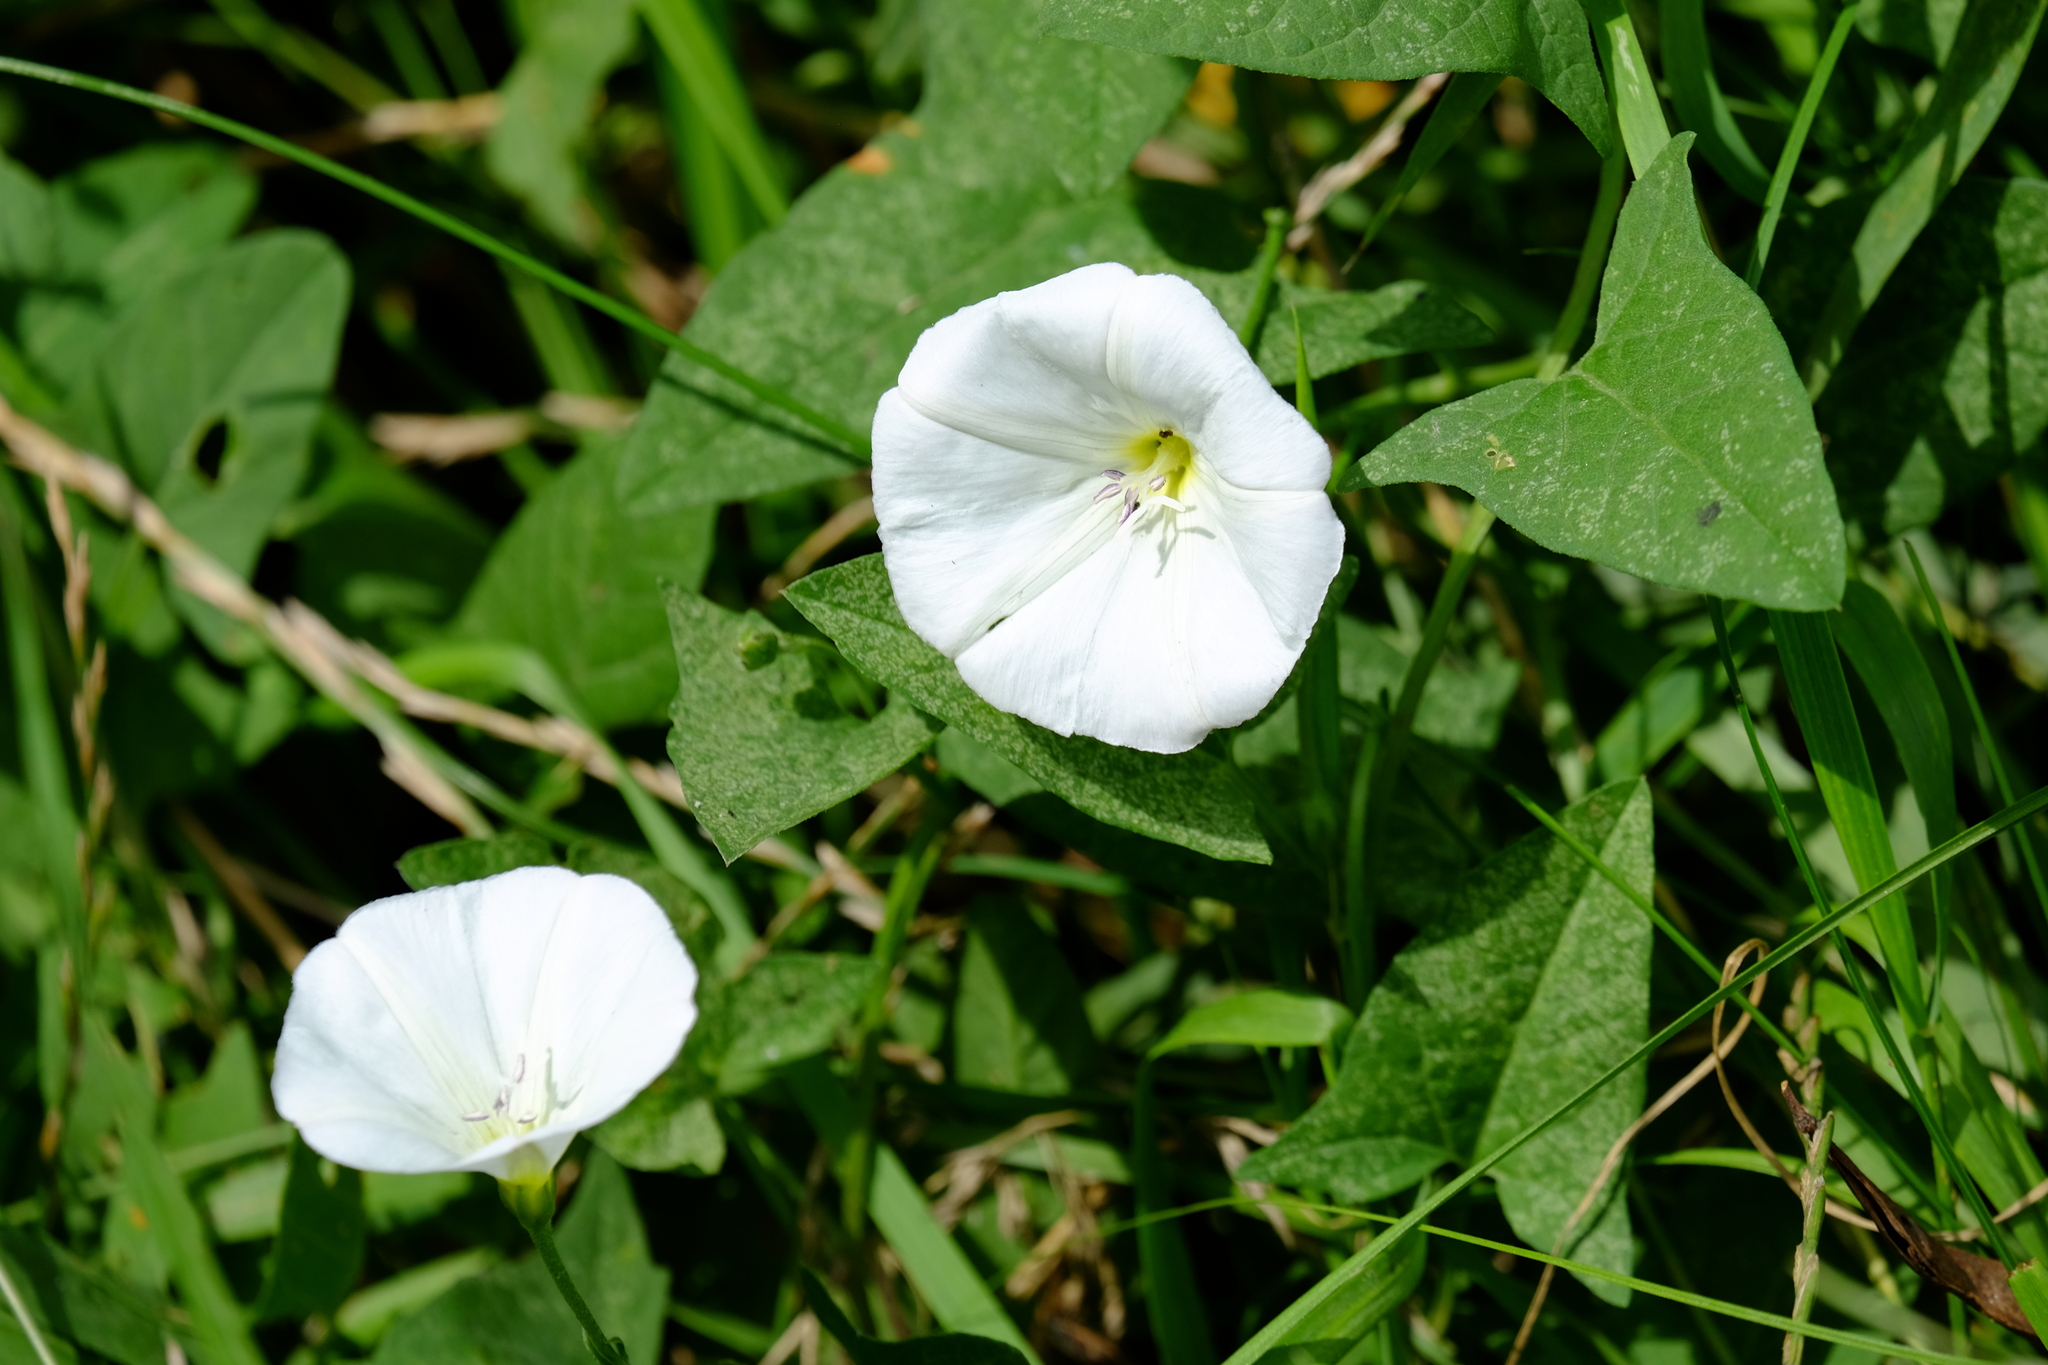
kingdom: Plantae
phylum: Tracheophyta
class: Magnoliopsida
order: Solanales
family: Convolvulaceae
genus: Convolvulus
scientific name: Convolvulus arvensis
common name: Field bindweed
